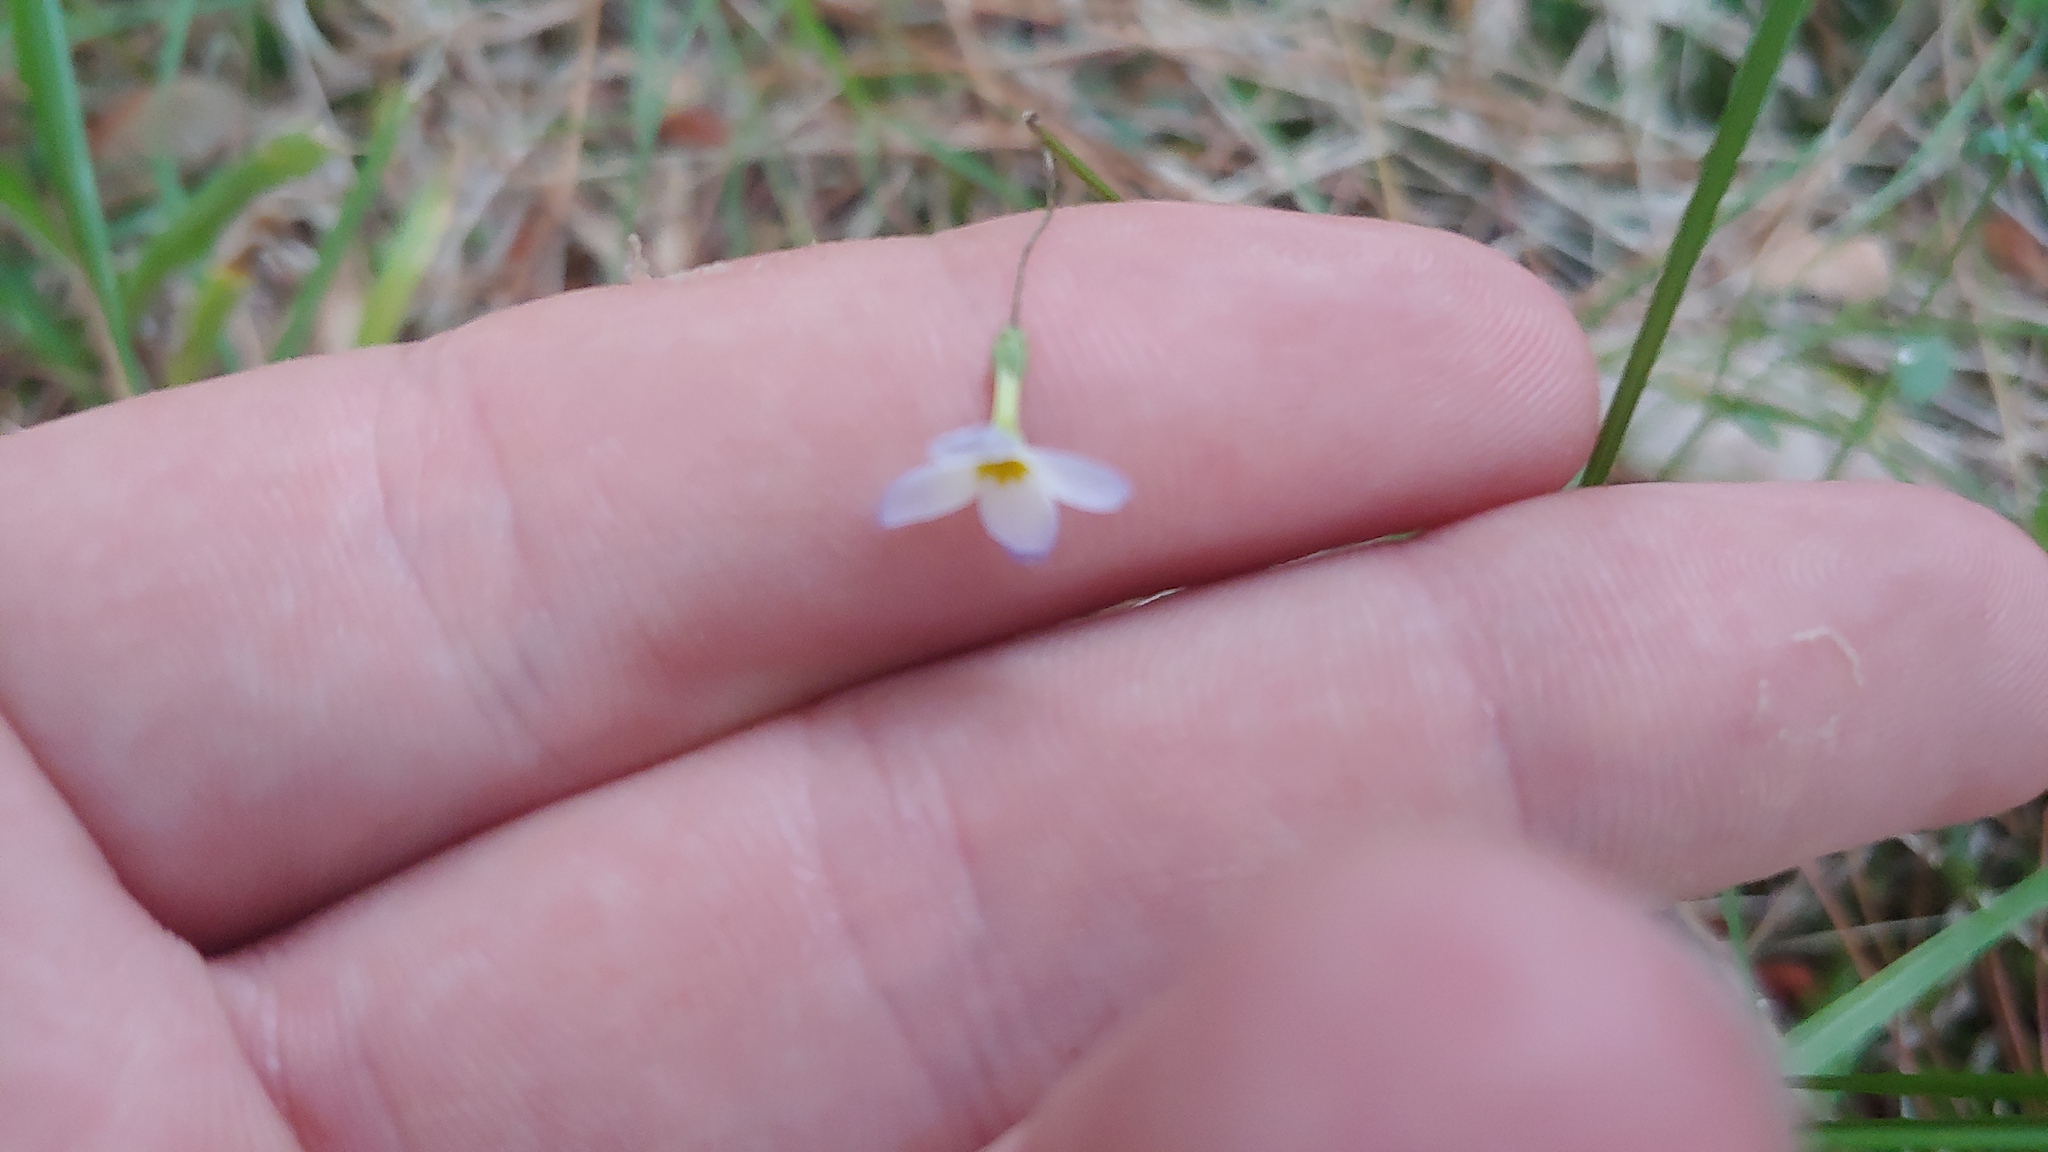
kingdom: Plantae
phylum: Tracheophyta
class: Magnoliopsida
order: Gentianales
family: Rubiaceae
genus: Houstonia
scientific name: Houstonia caerulea
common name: Bluets
